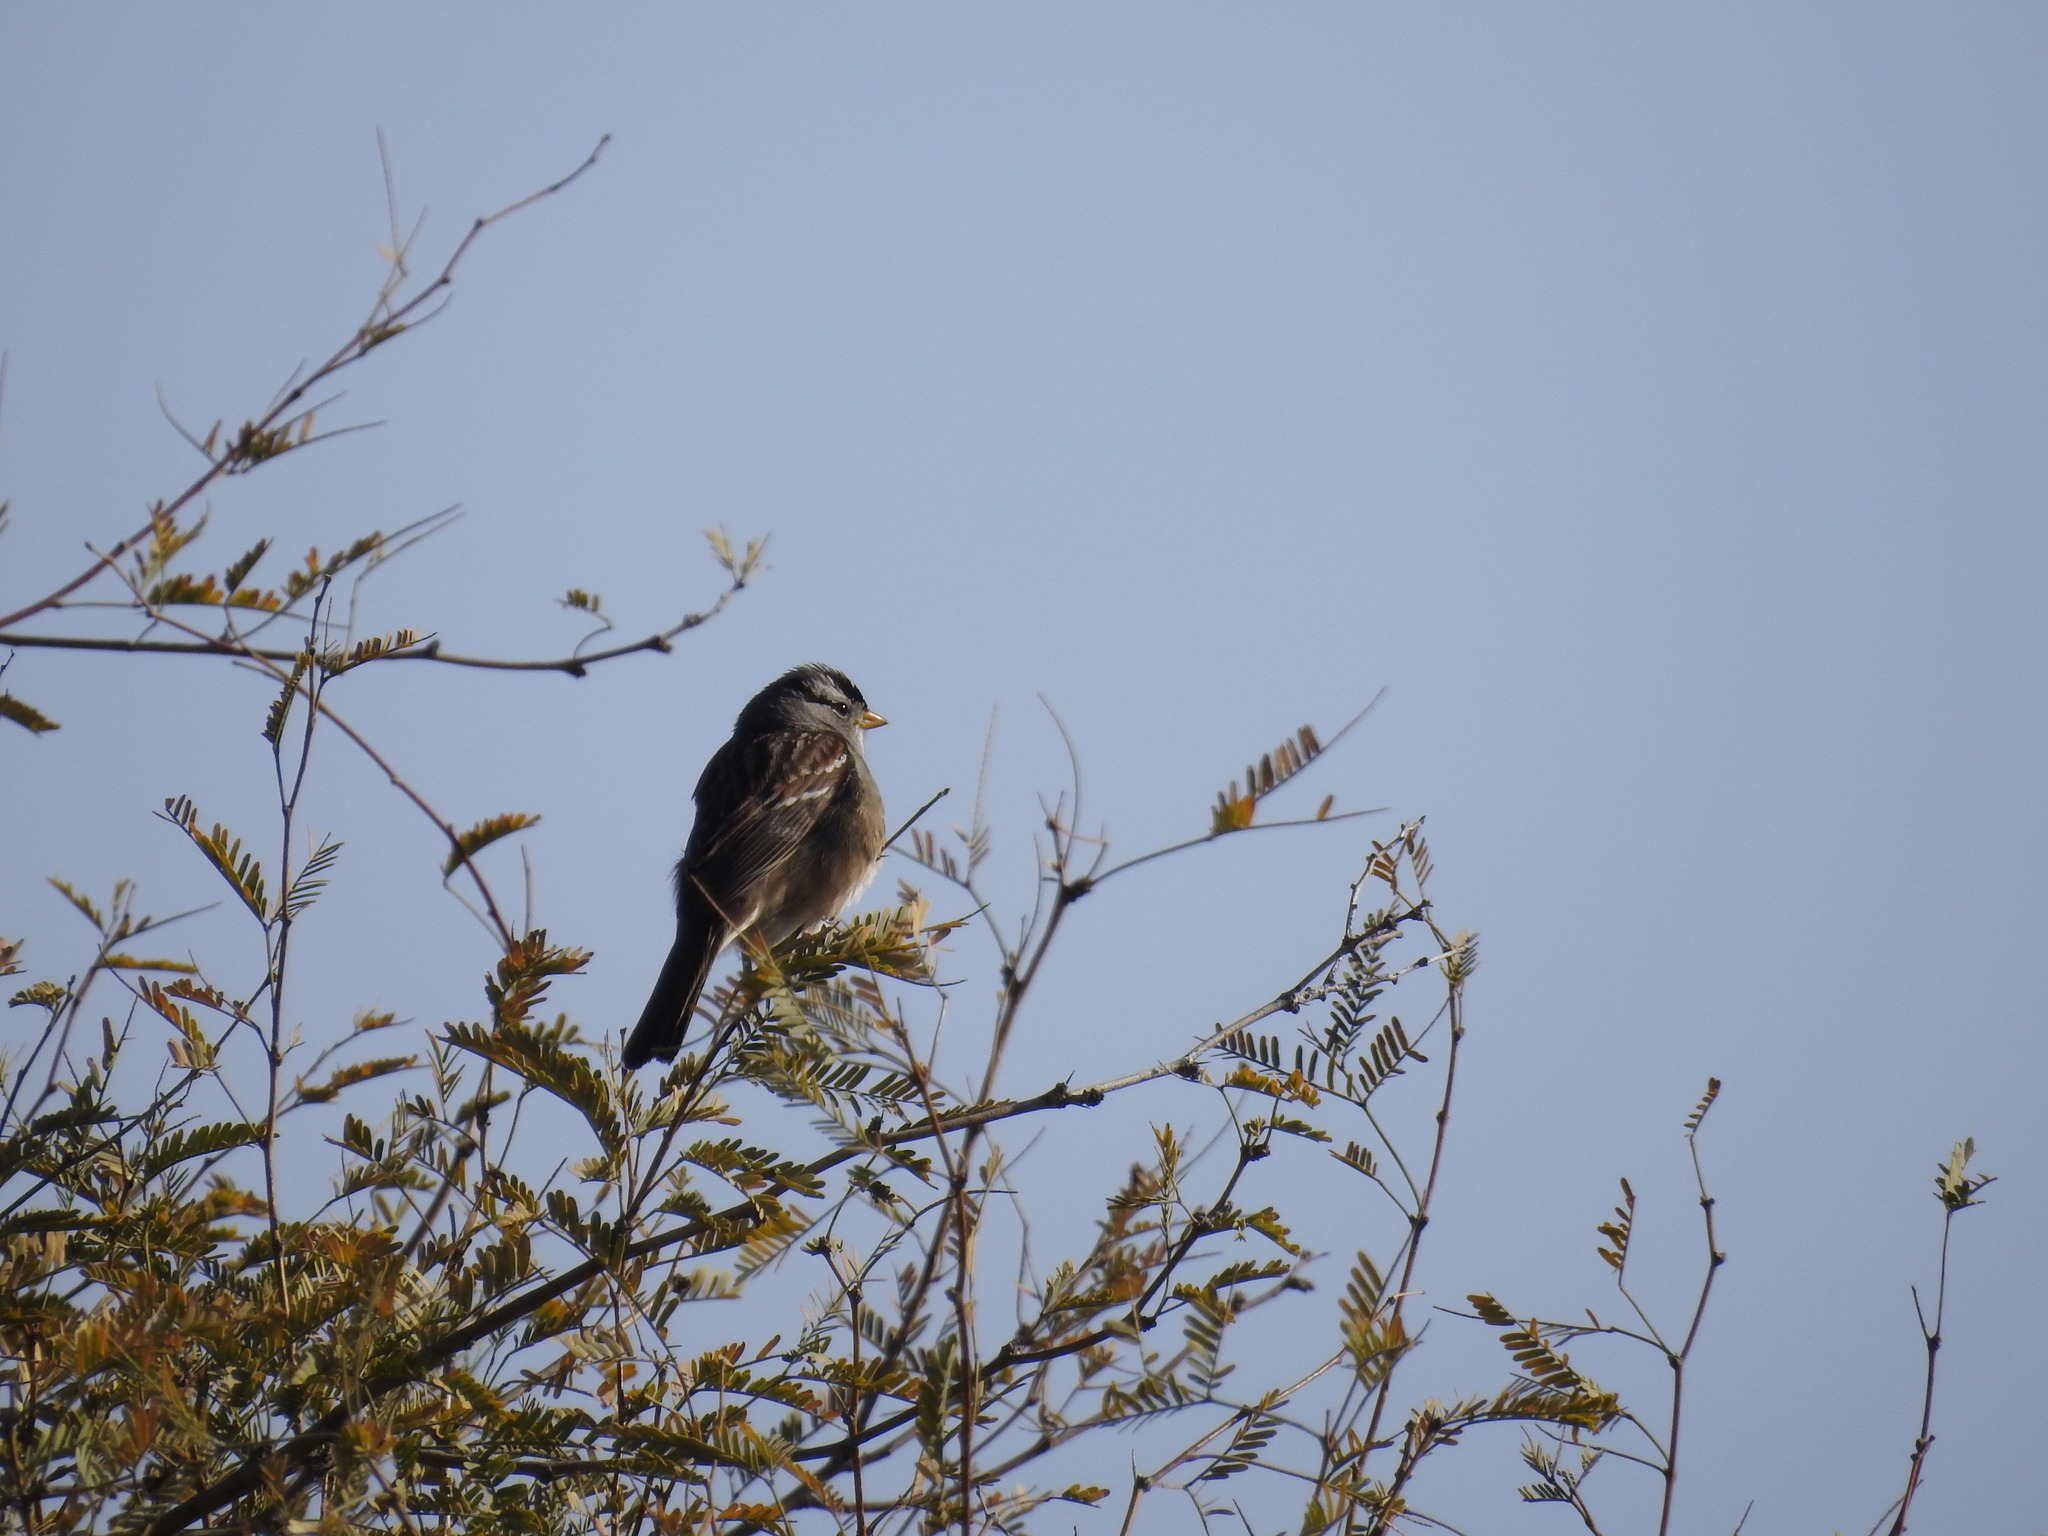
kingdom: Animalia
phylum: Chordata
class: Aves
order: Passeriformes
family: Passerellidae
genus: Zonotrichia
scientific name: Zonotrichia leucophrys
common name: White-crowned sparrow
